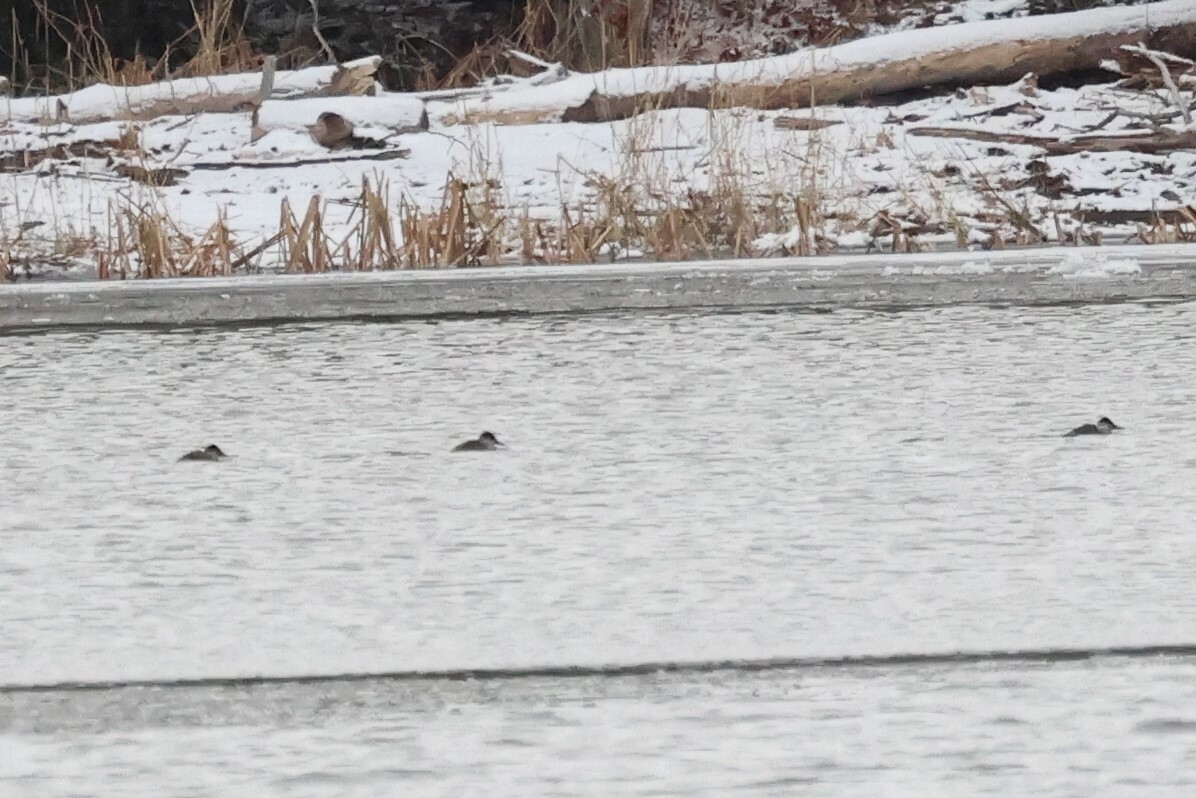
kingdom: Animalia
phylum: Chordata
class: Aves
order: Anseriformes
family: Anatidae
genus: Oxyura
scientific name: Oxyura jamaicensis
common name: Ruddy duck
